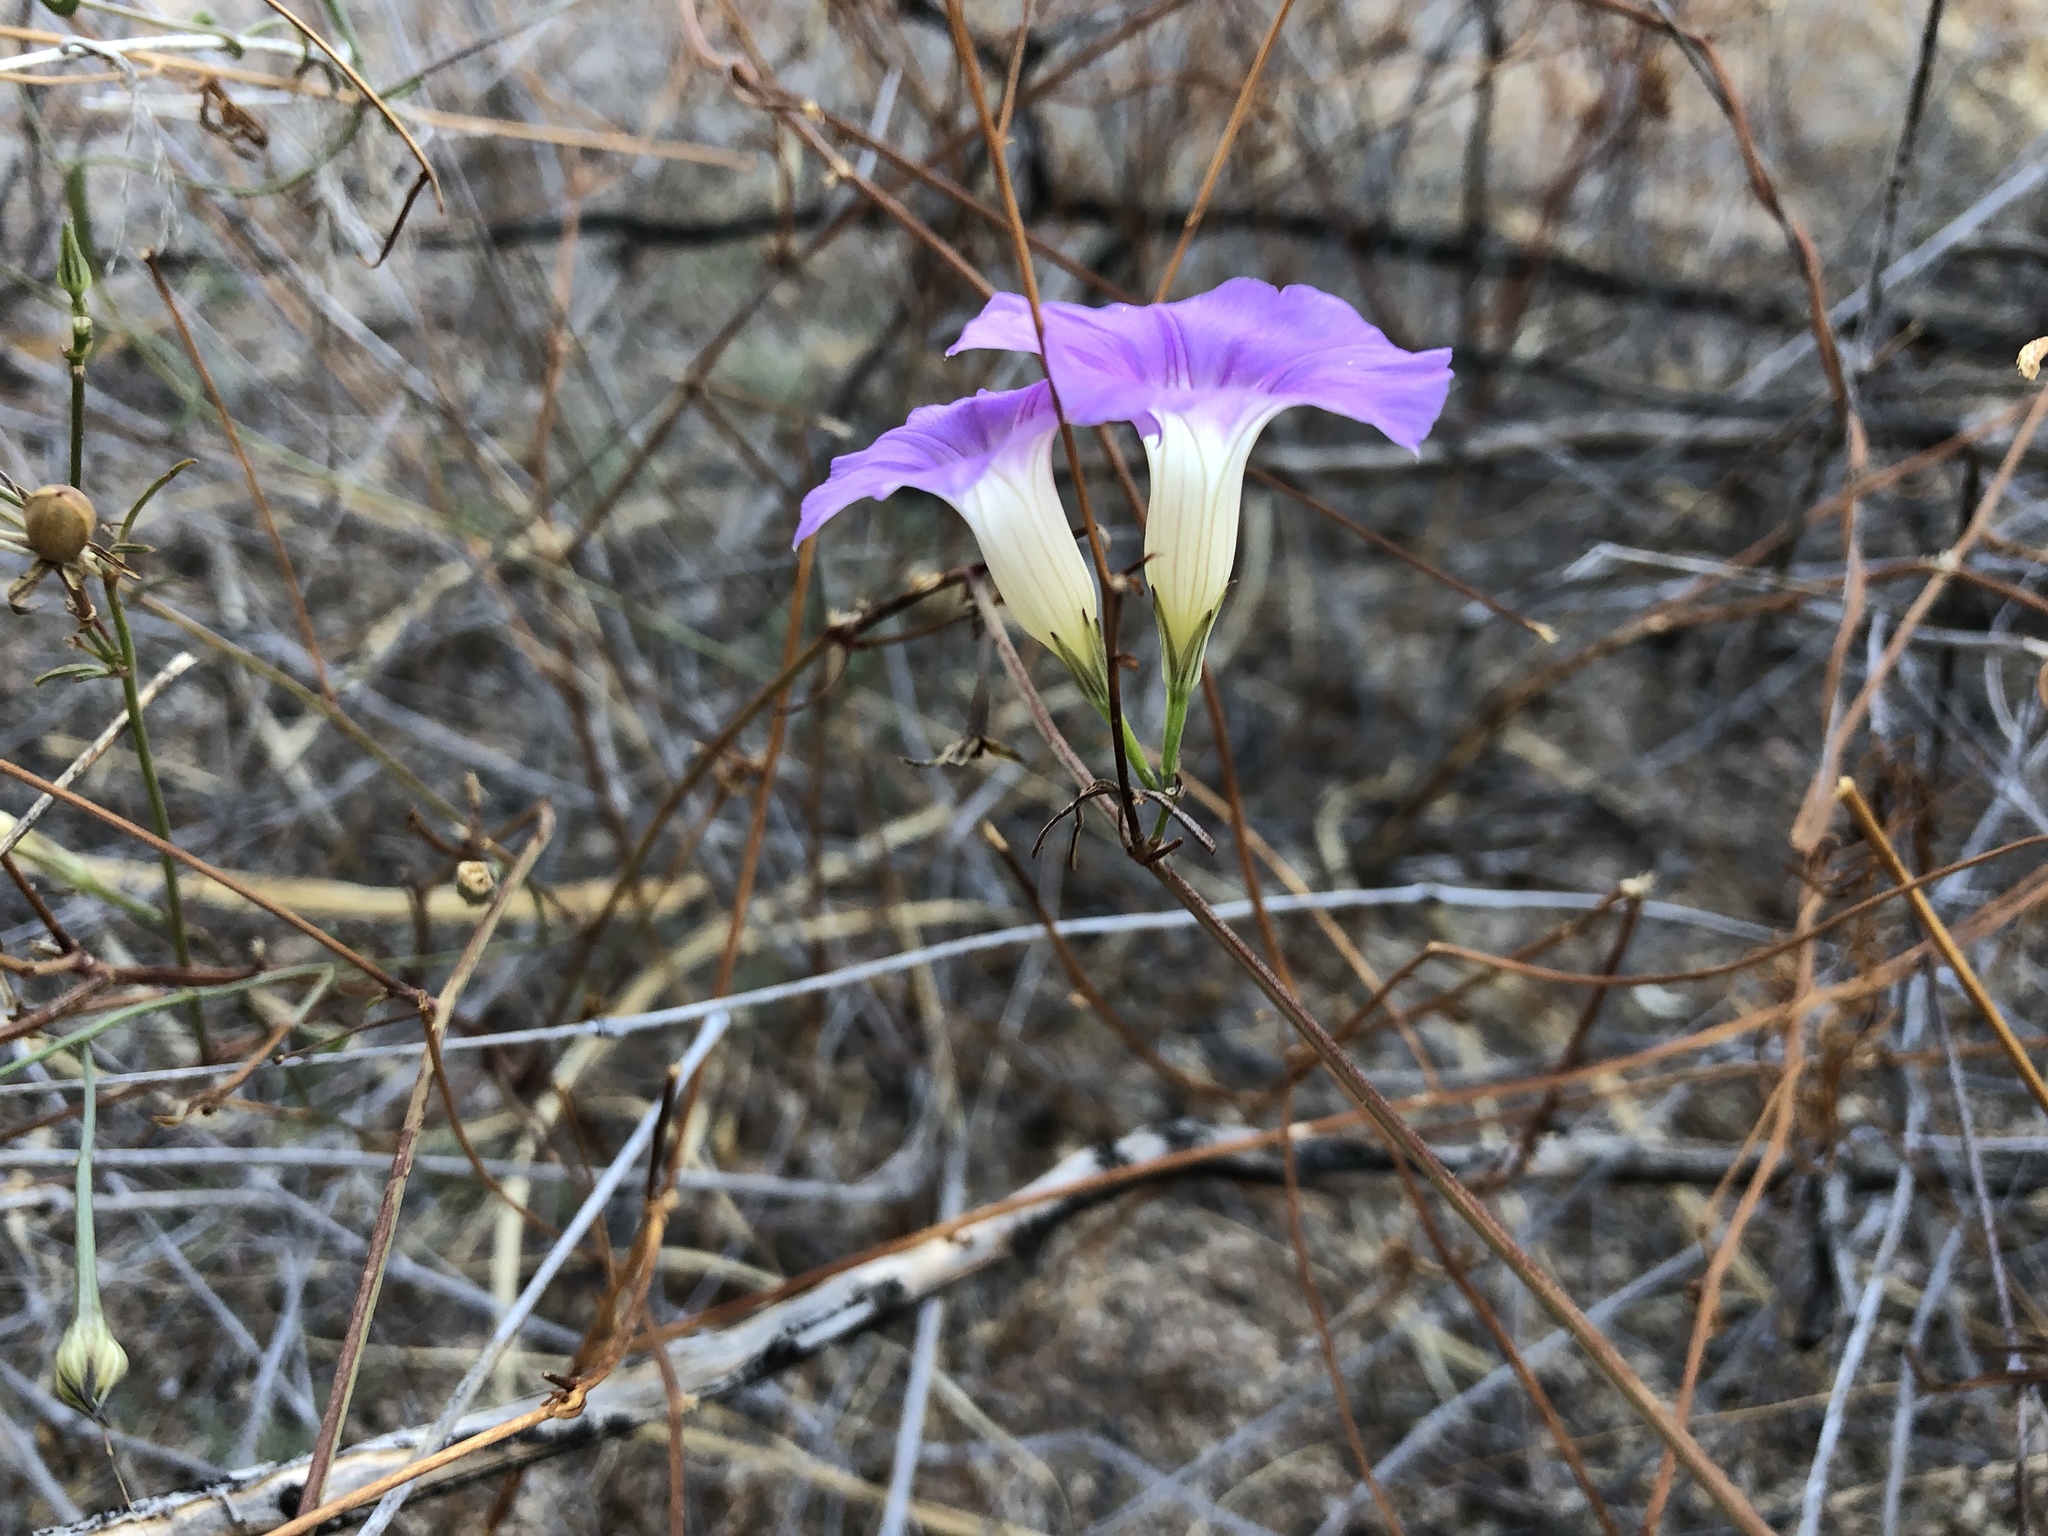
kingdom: Plantae
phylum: Tracheophyta
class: Magnoliopsida
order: Solanales
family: Convolvulaceae
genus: Ipomoea
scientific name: Ipomoea ternifolia
